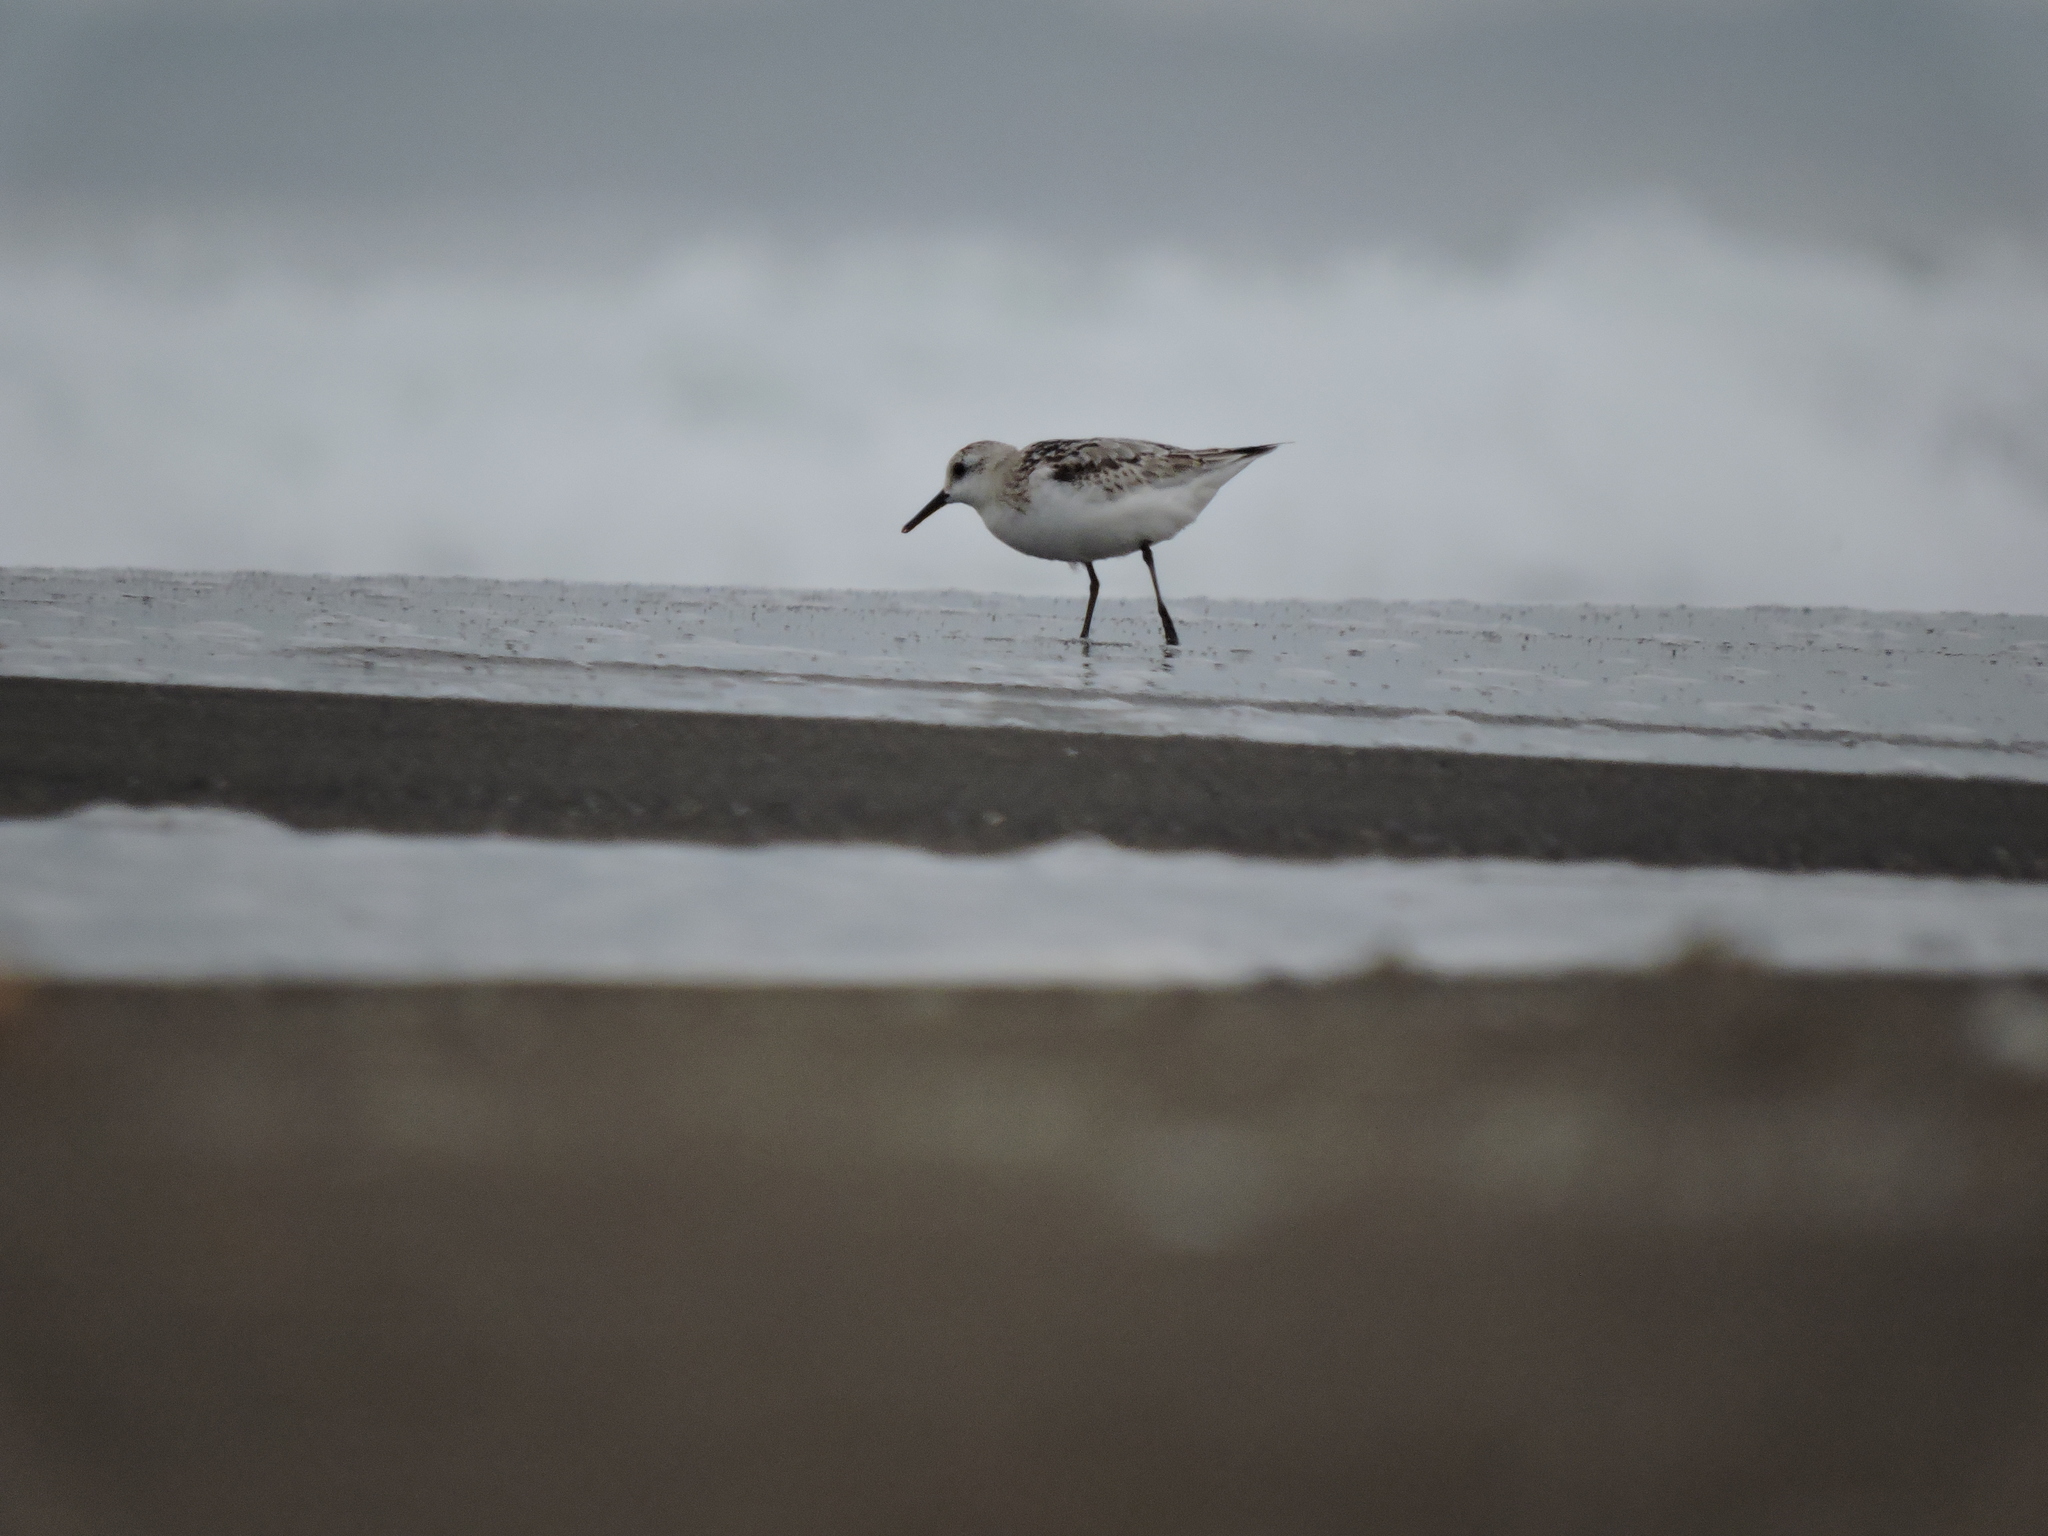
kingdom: Animalia
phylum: Chordata
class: Aves
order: Charadriiformes
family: Scolopacidae
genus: Calidris
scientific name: Calidris alba
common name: Sanderling
